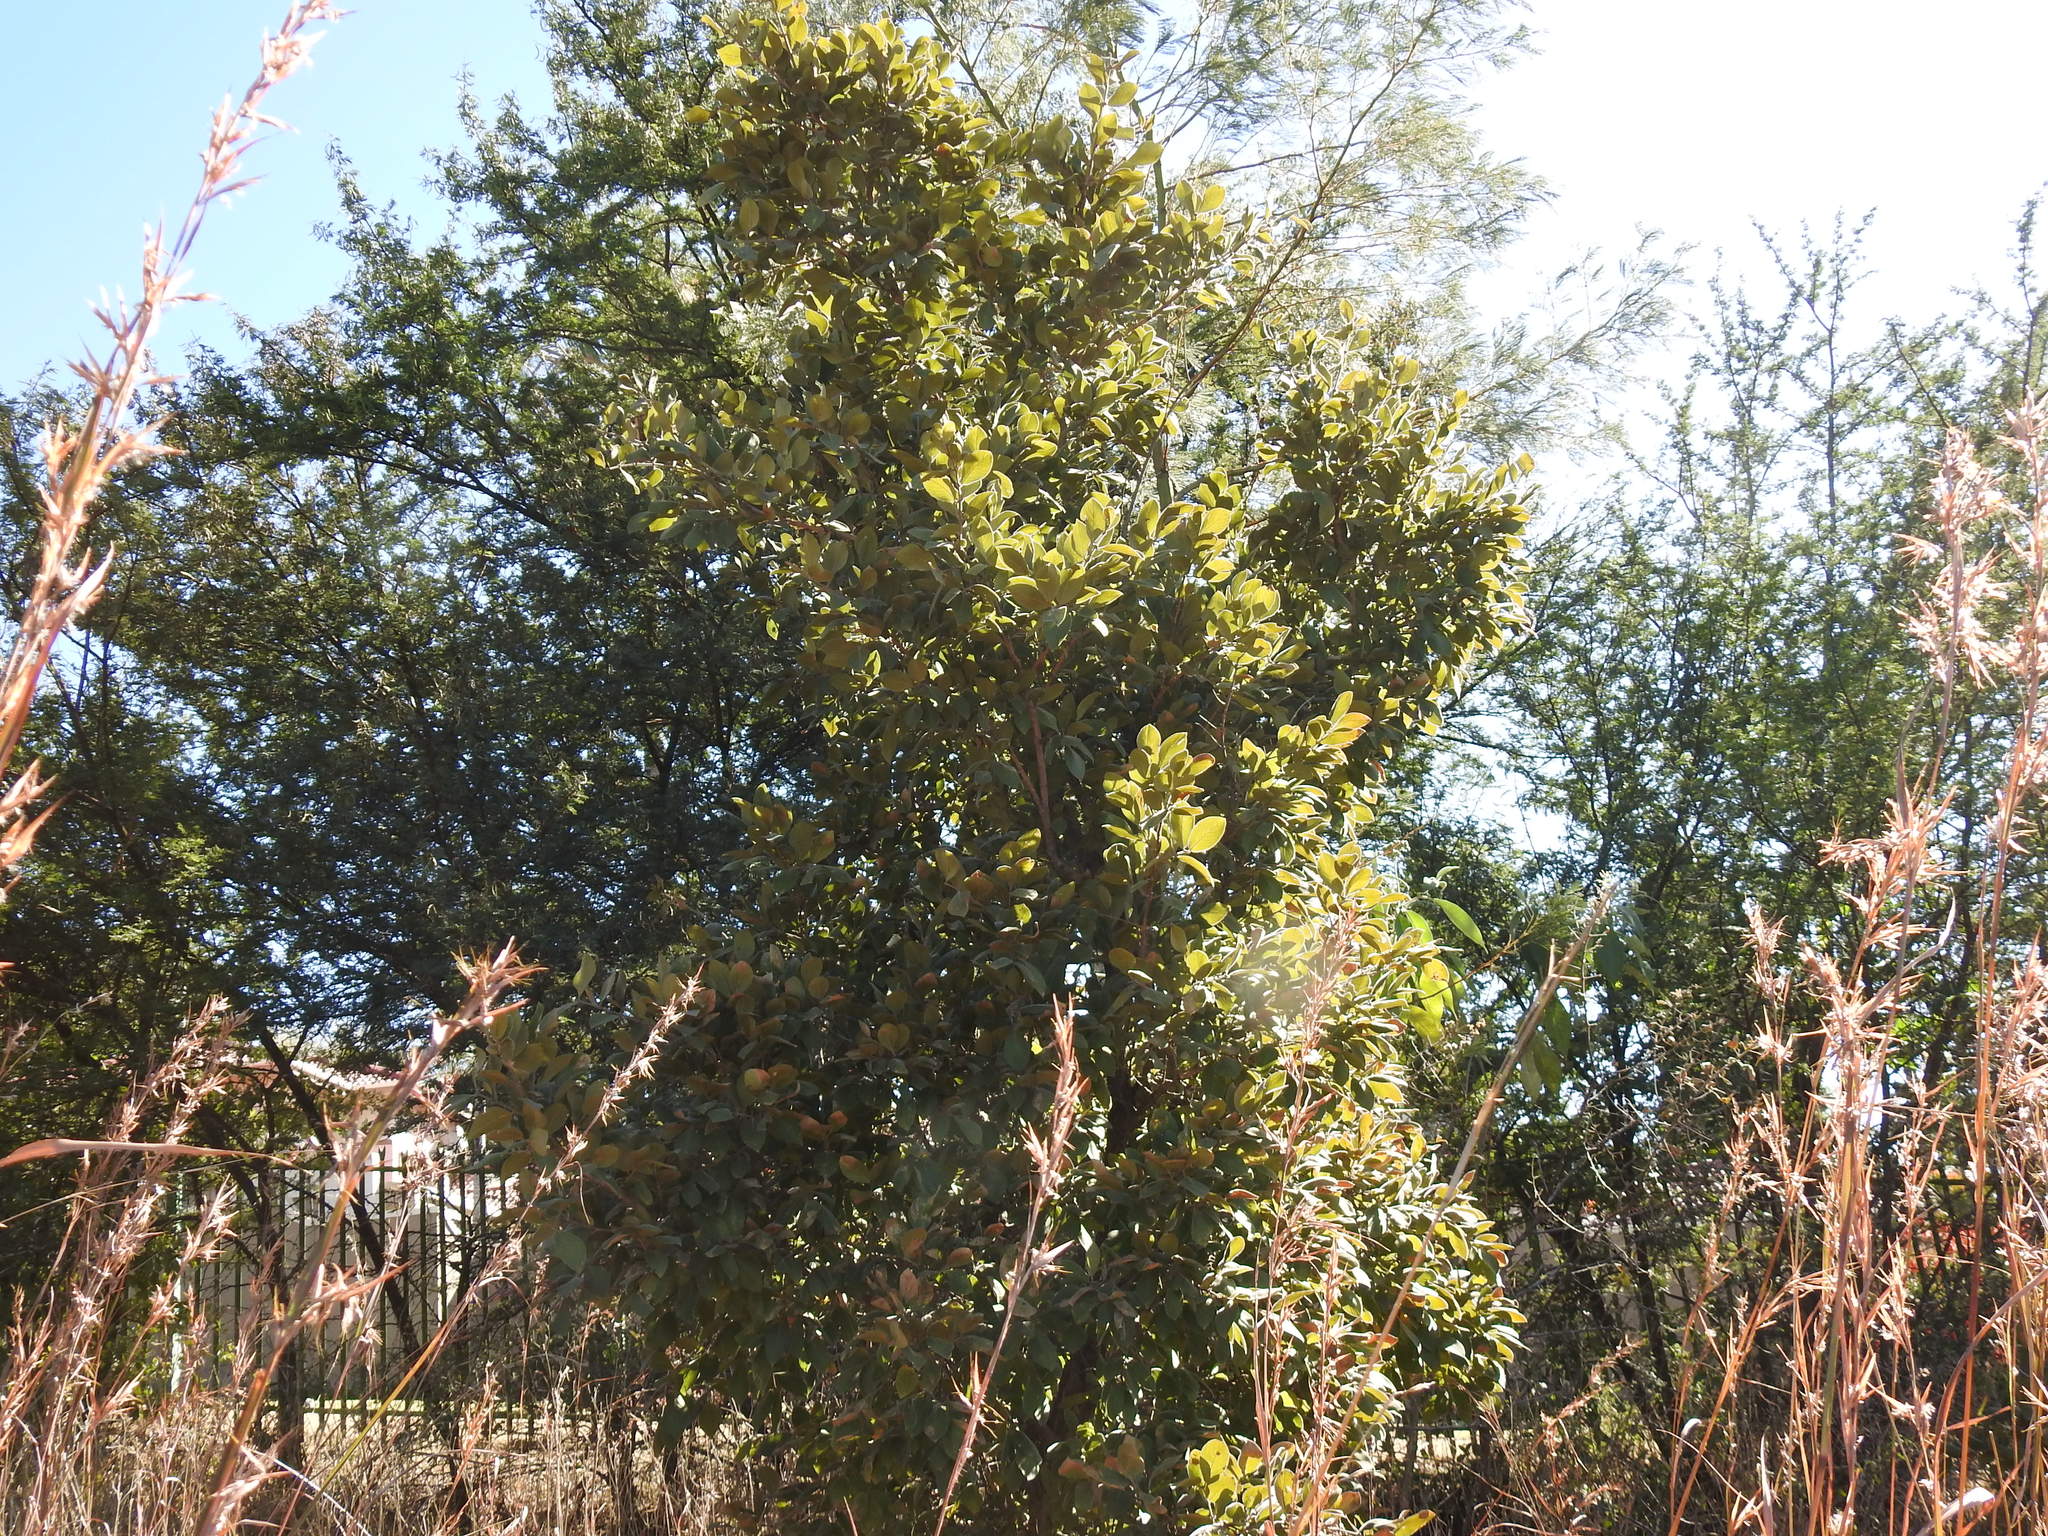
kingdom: Plantae
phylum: Tracheophyta
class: Magnoliopsida
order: Myrtales
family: Combretaceae
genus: Combretum
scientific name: Combretum molle
